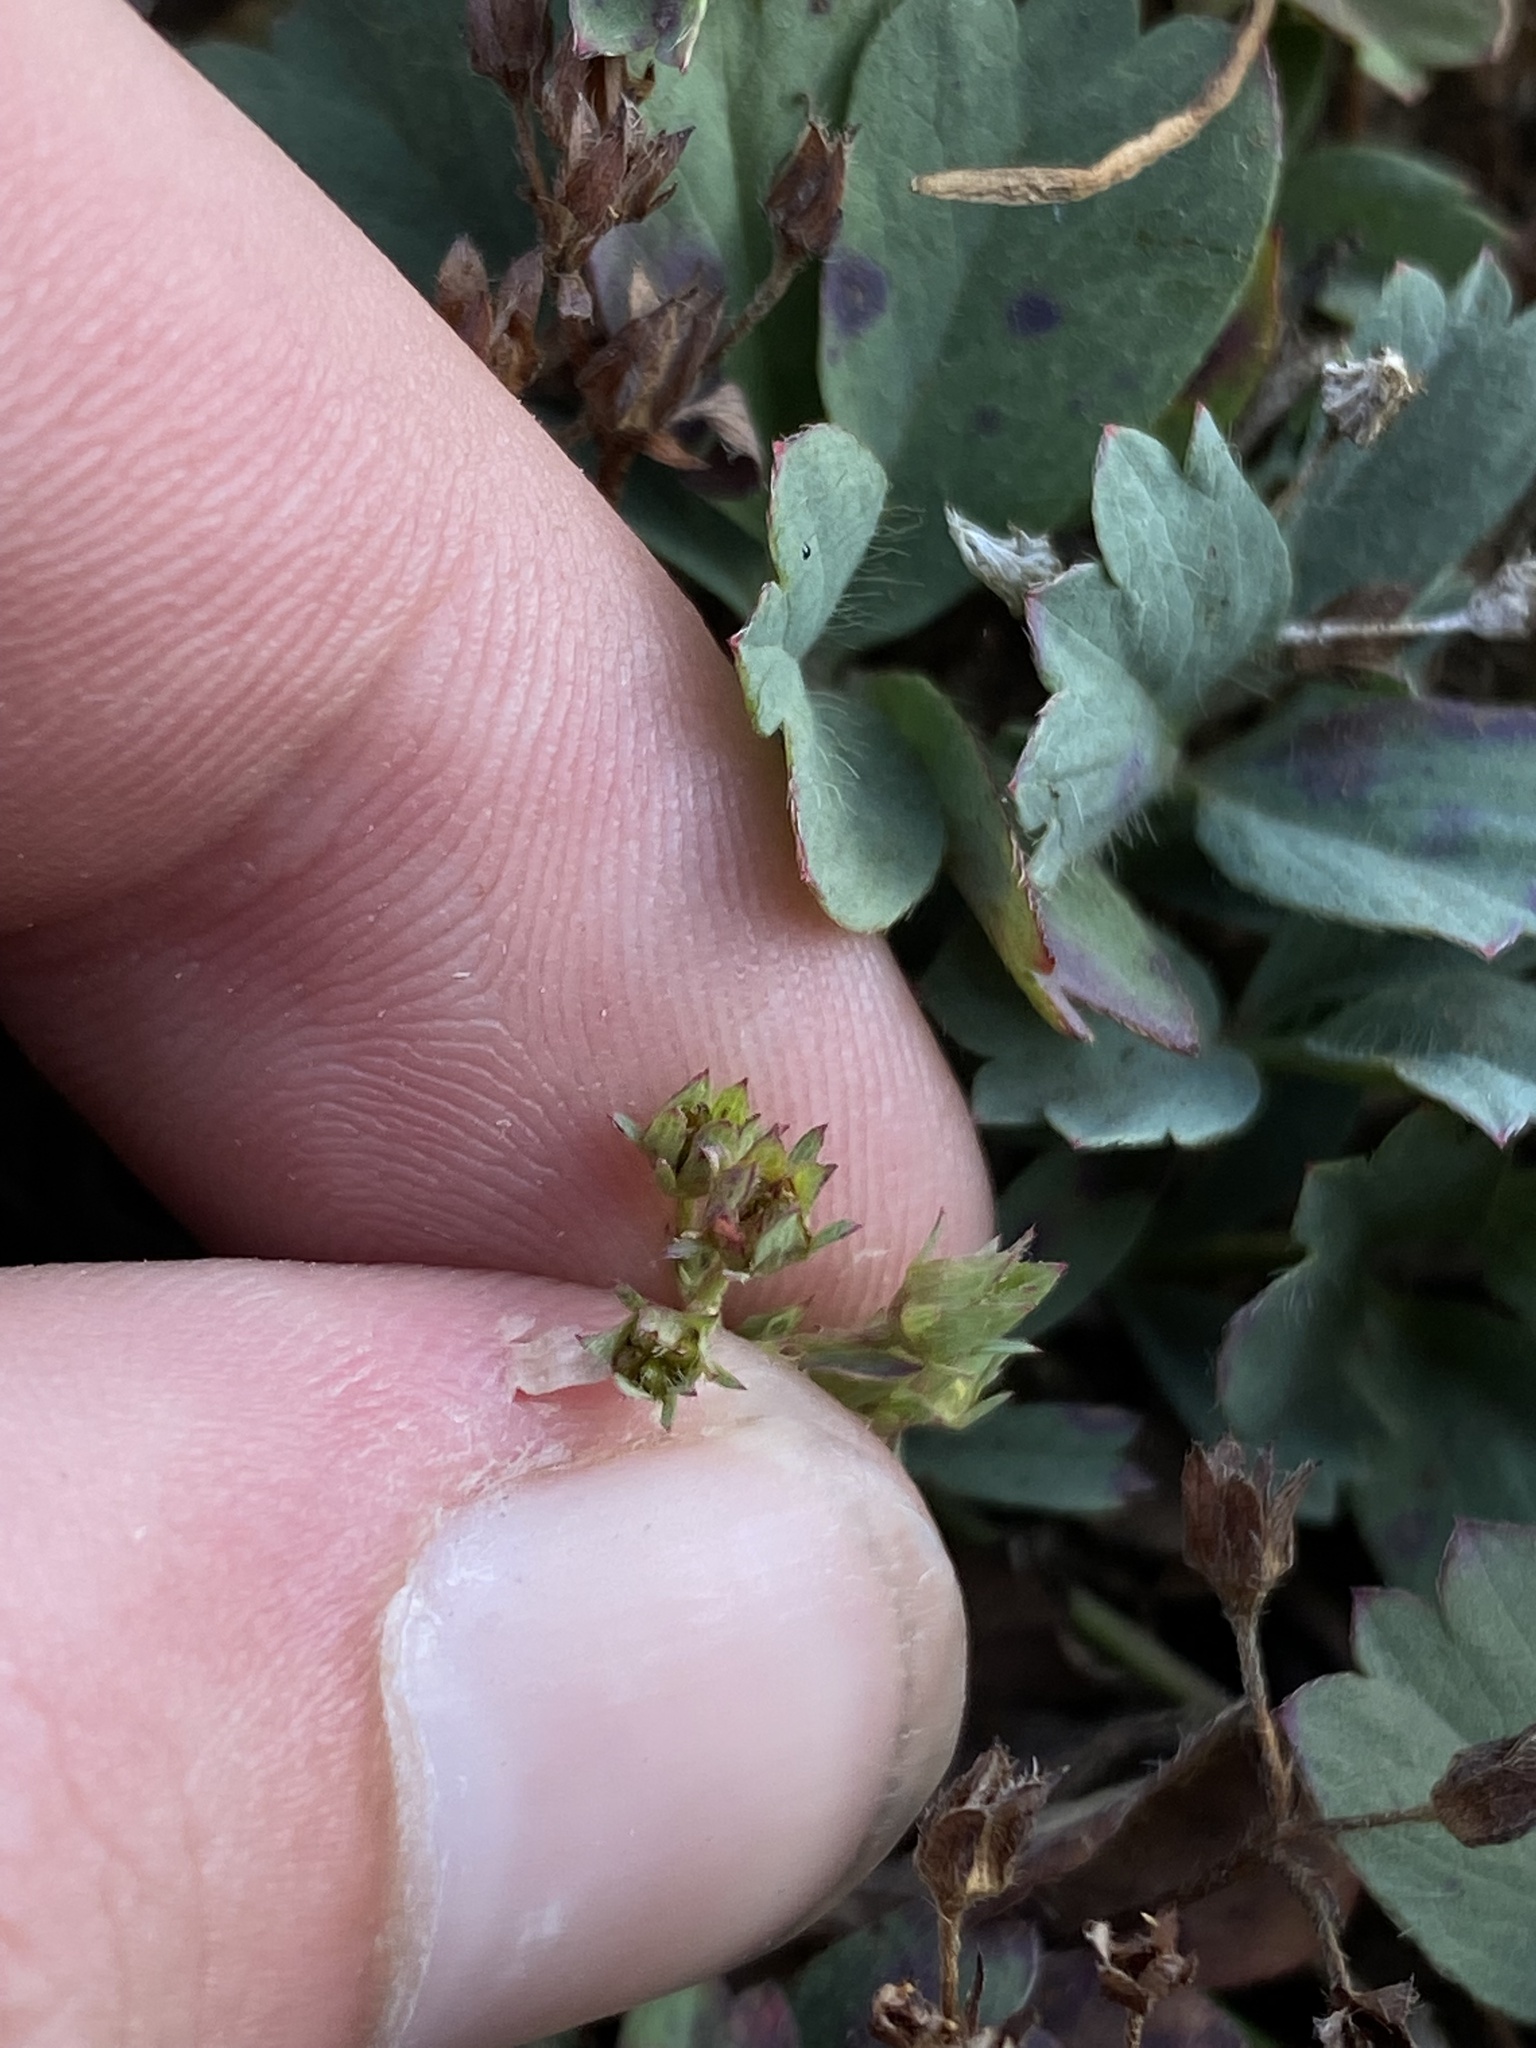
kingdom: Plantae
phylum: Tracheophyta
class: Magnoliopsida
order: Rosales
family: Rosaceae
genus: Sibbaldia
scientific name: Sibbaldia procumbens
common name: Creeping sibbaldia
